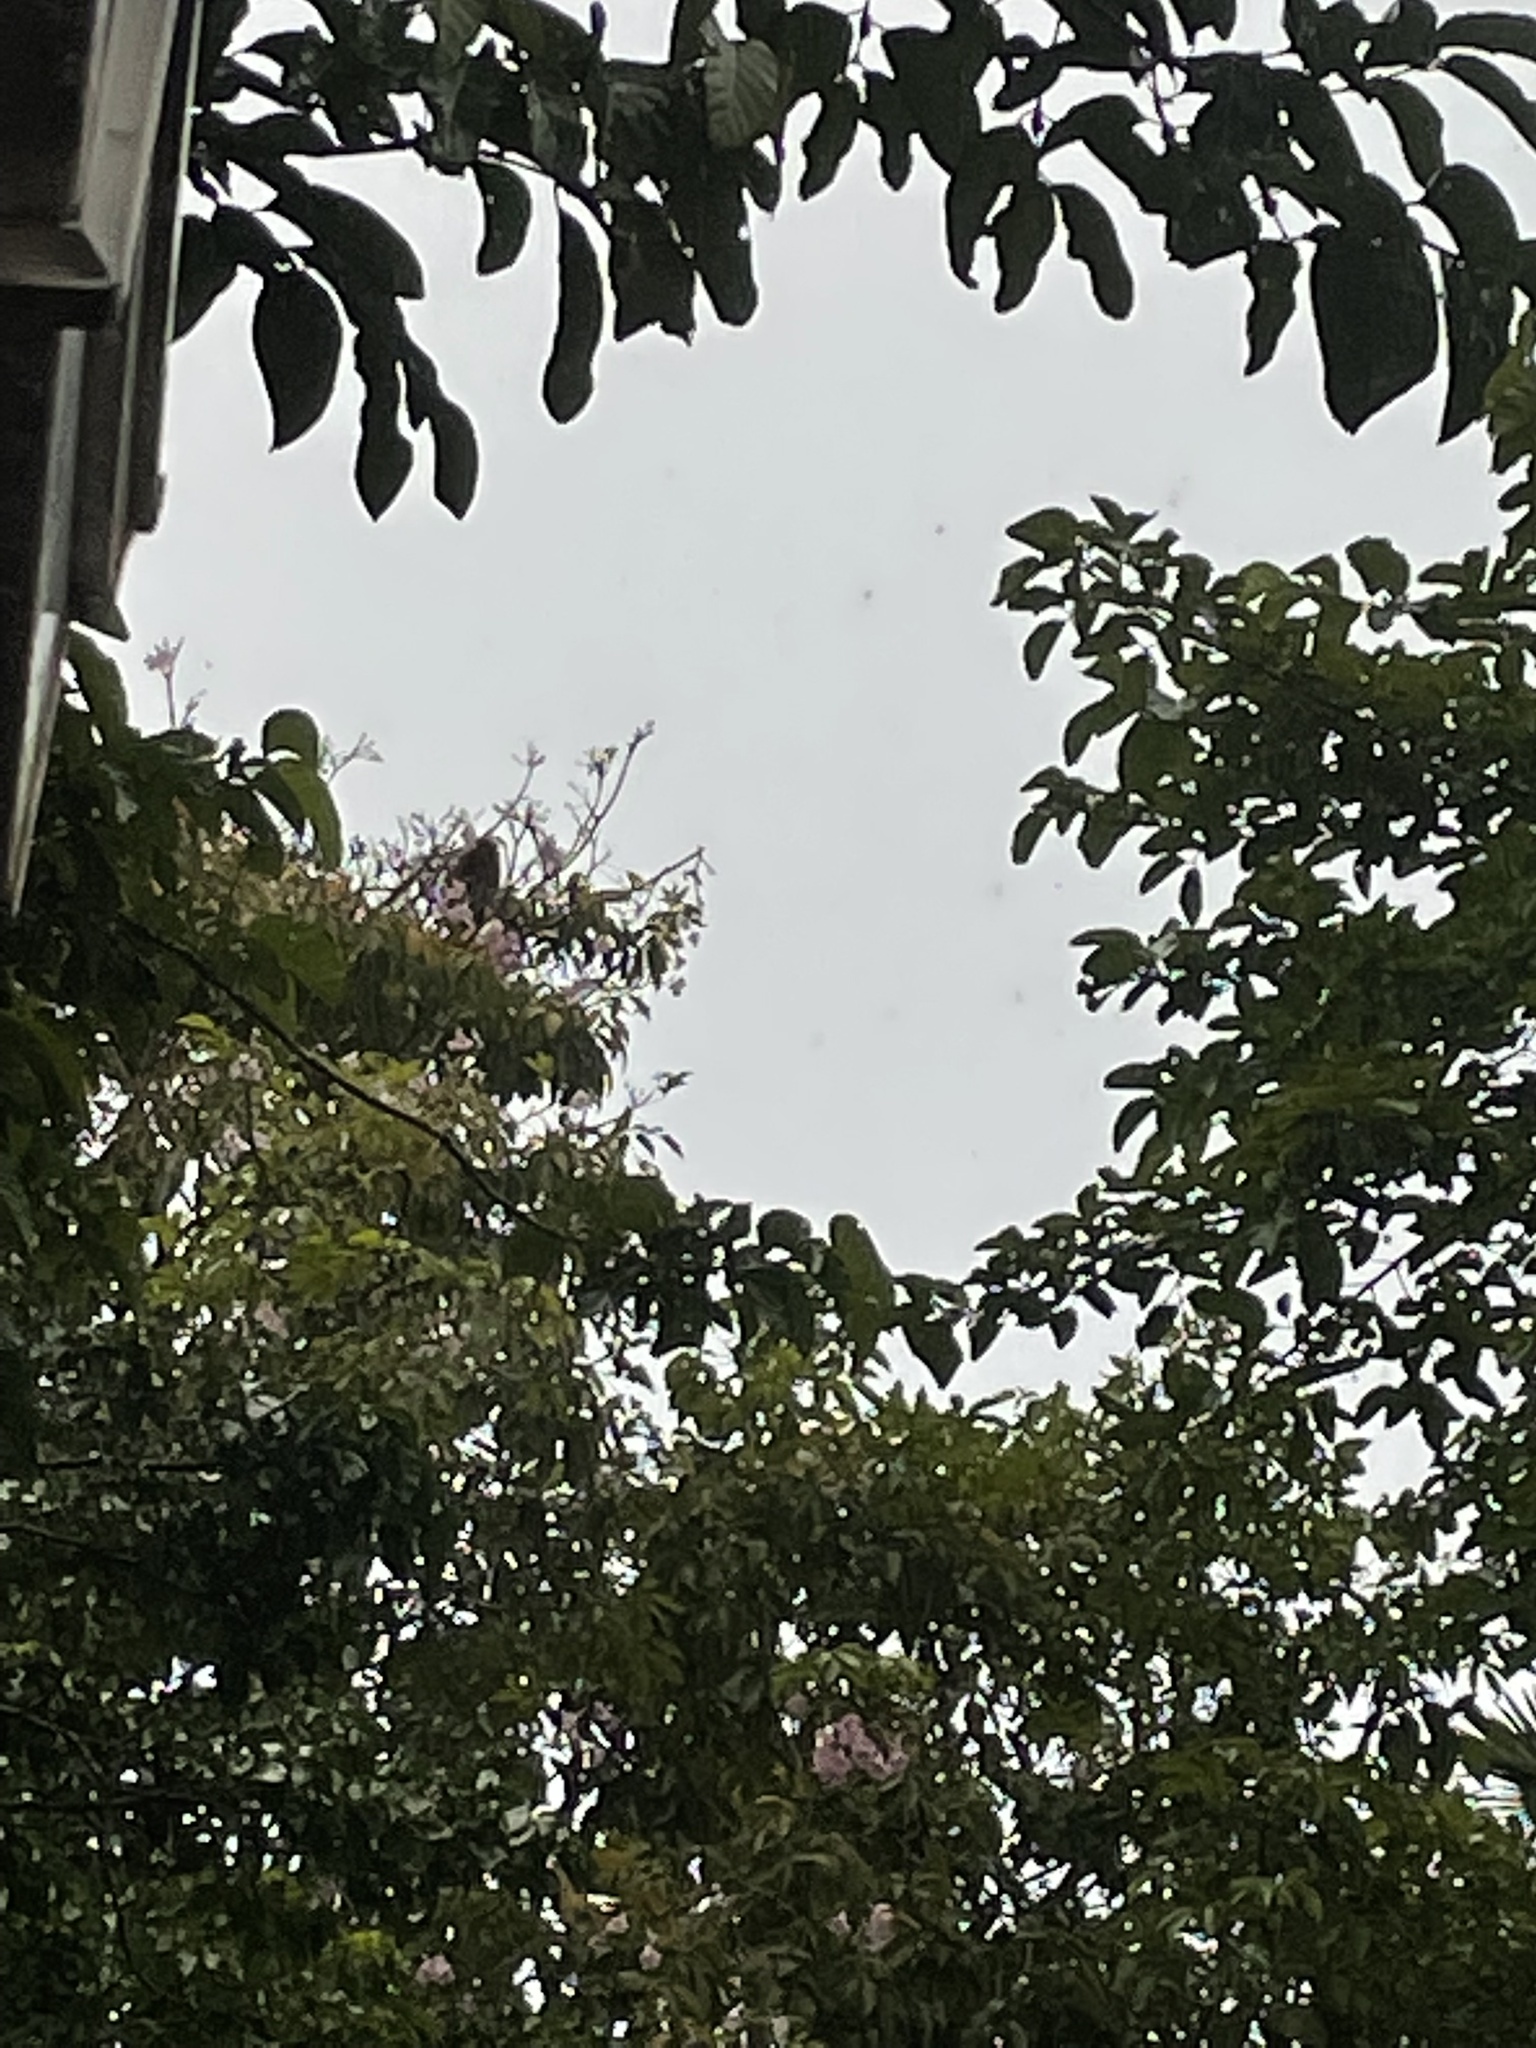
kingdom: Animalia
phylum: Chordata
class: Mammalia
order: Primates
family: Cercopithecidae
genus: Presbytis
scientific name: Presbytis rubicunda
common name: Maroon leaf monkey
